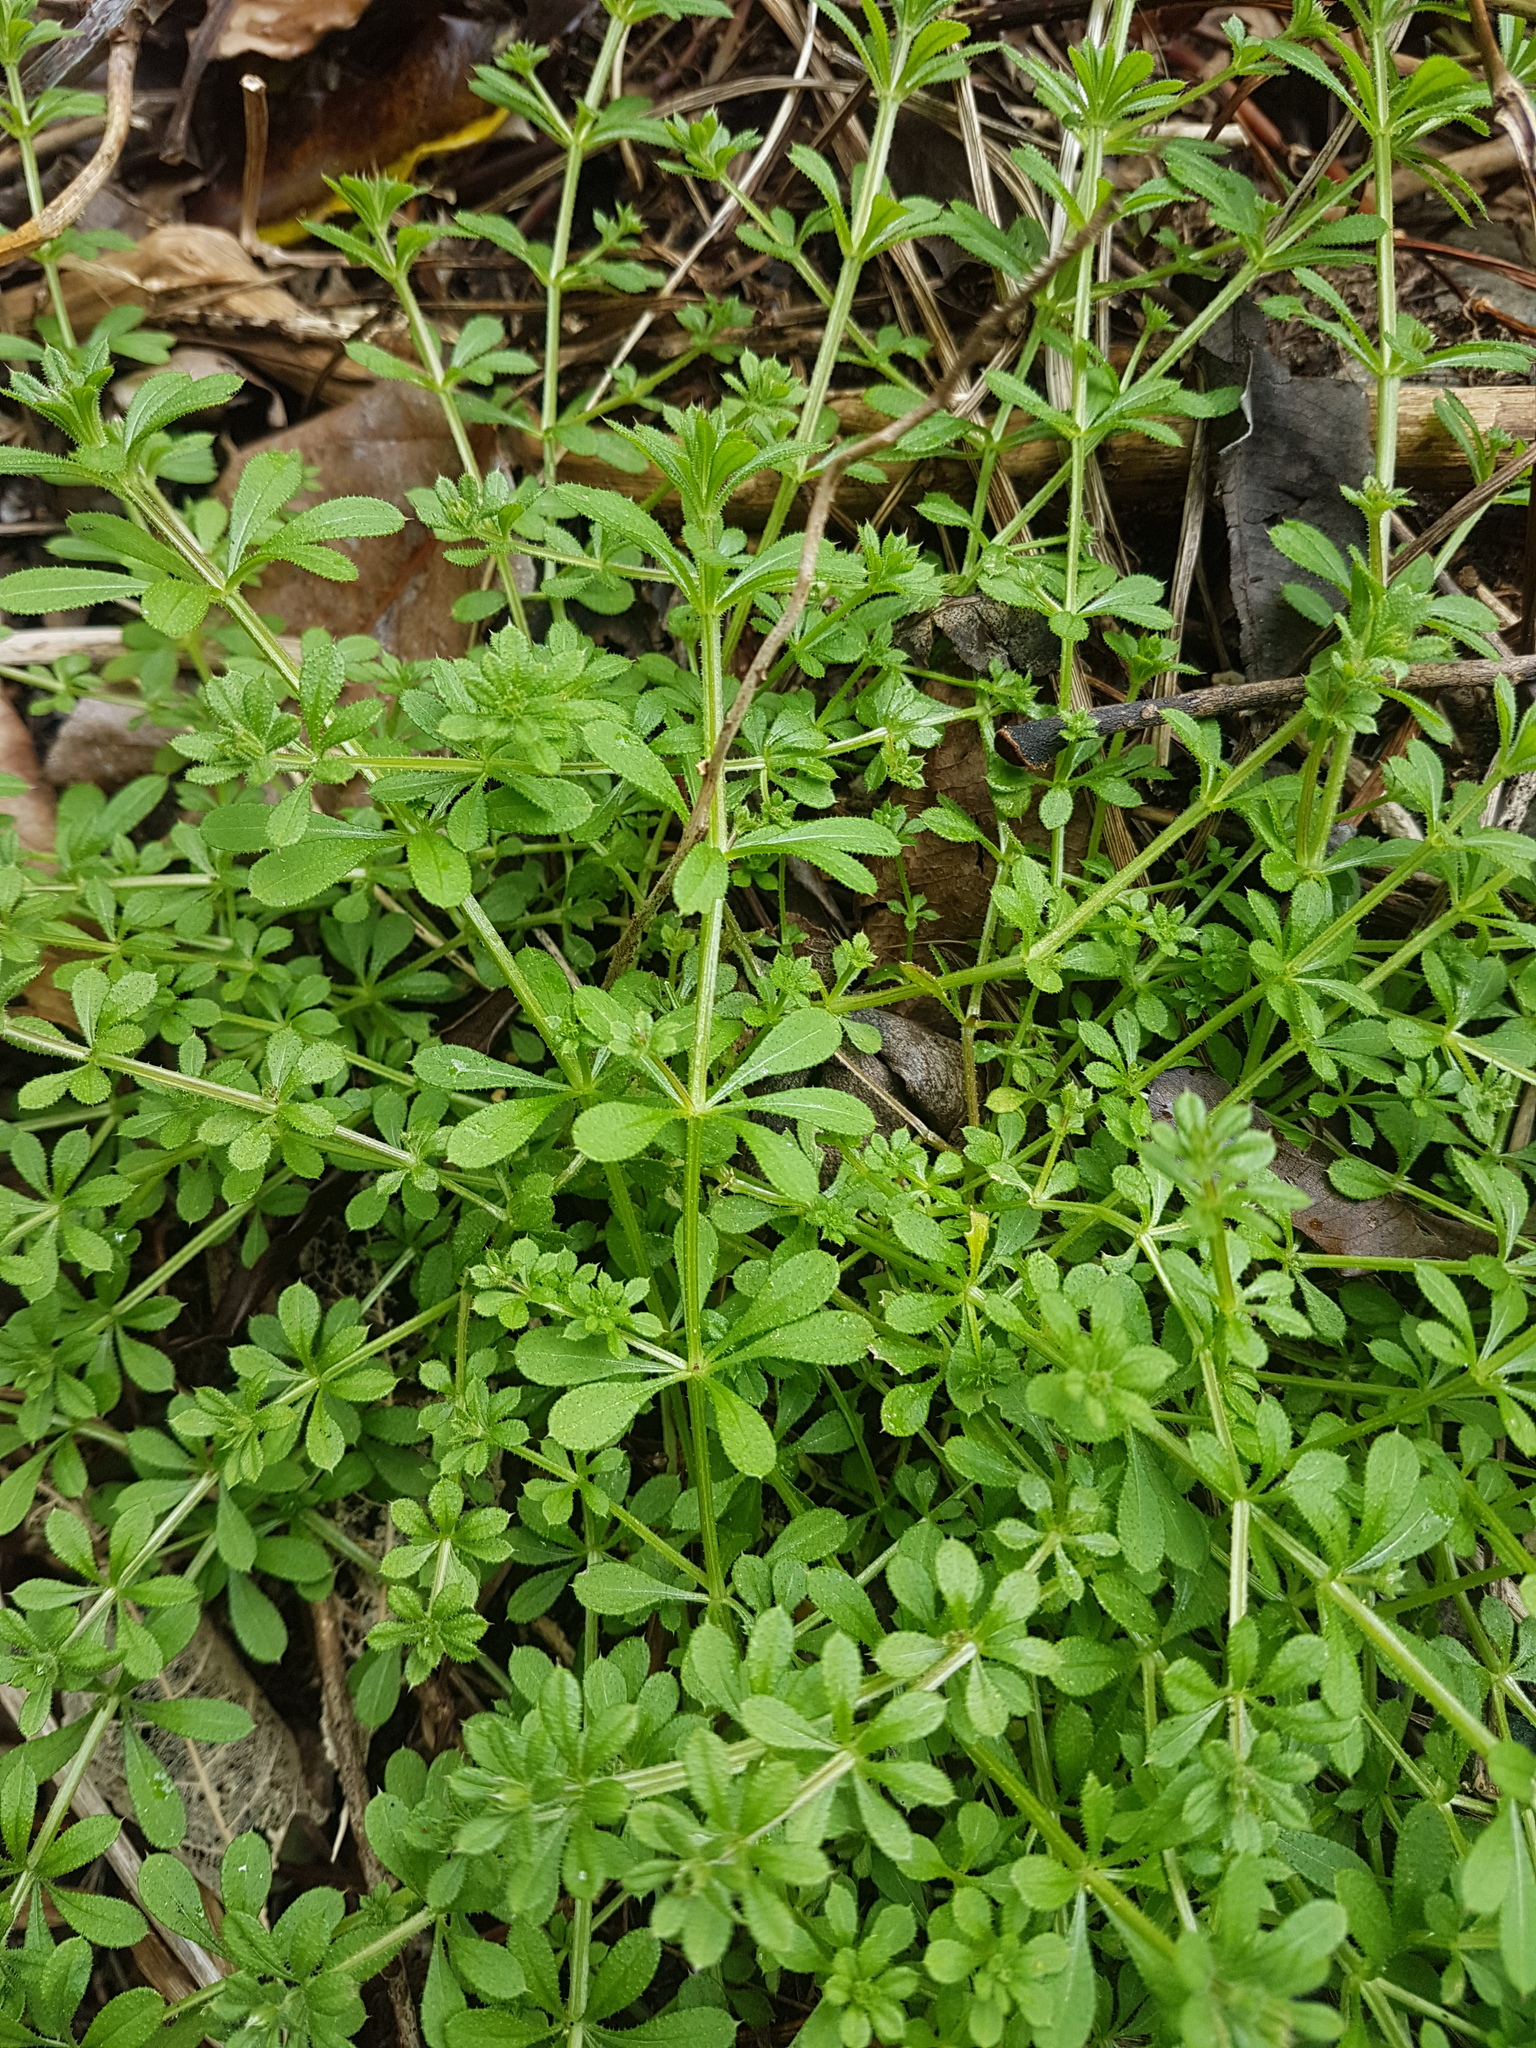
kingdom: Plantae
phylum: Tracheophyta
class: Magnoliopsida
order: Gentianales
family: Rubiaceae
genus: Galium
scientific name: Galium aparine
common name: Cleavers
